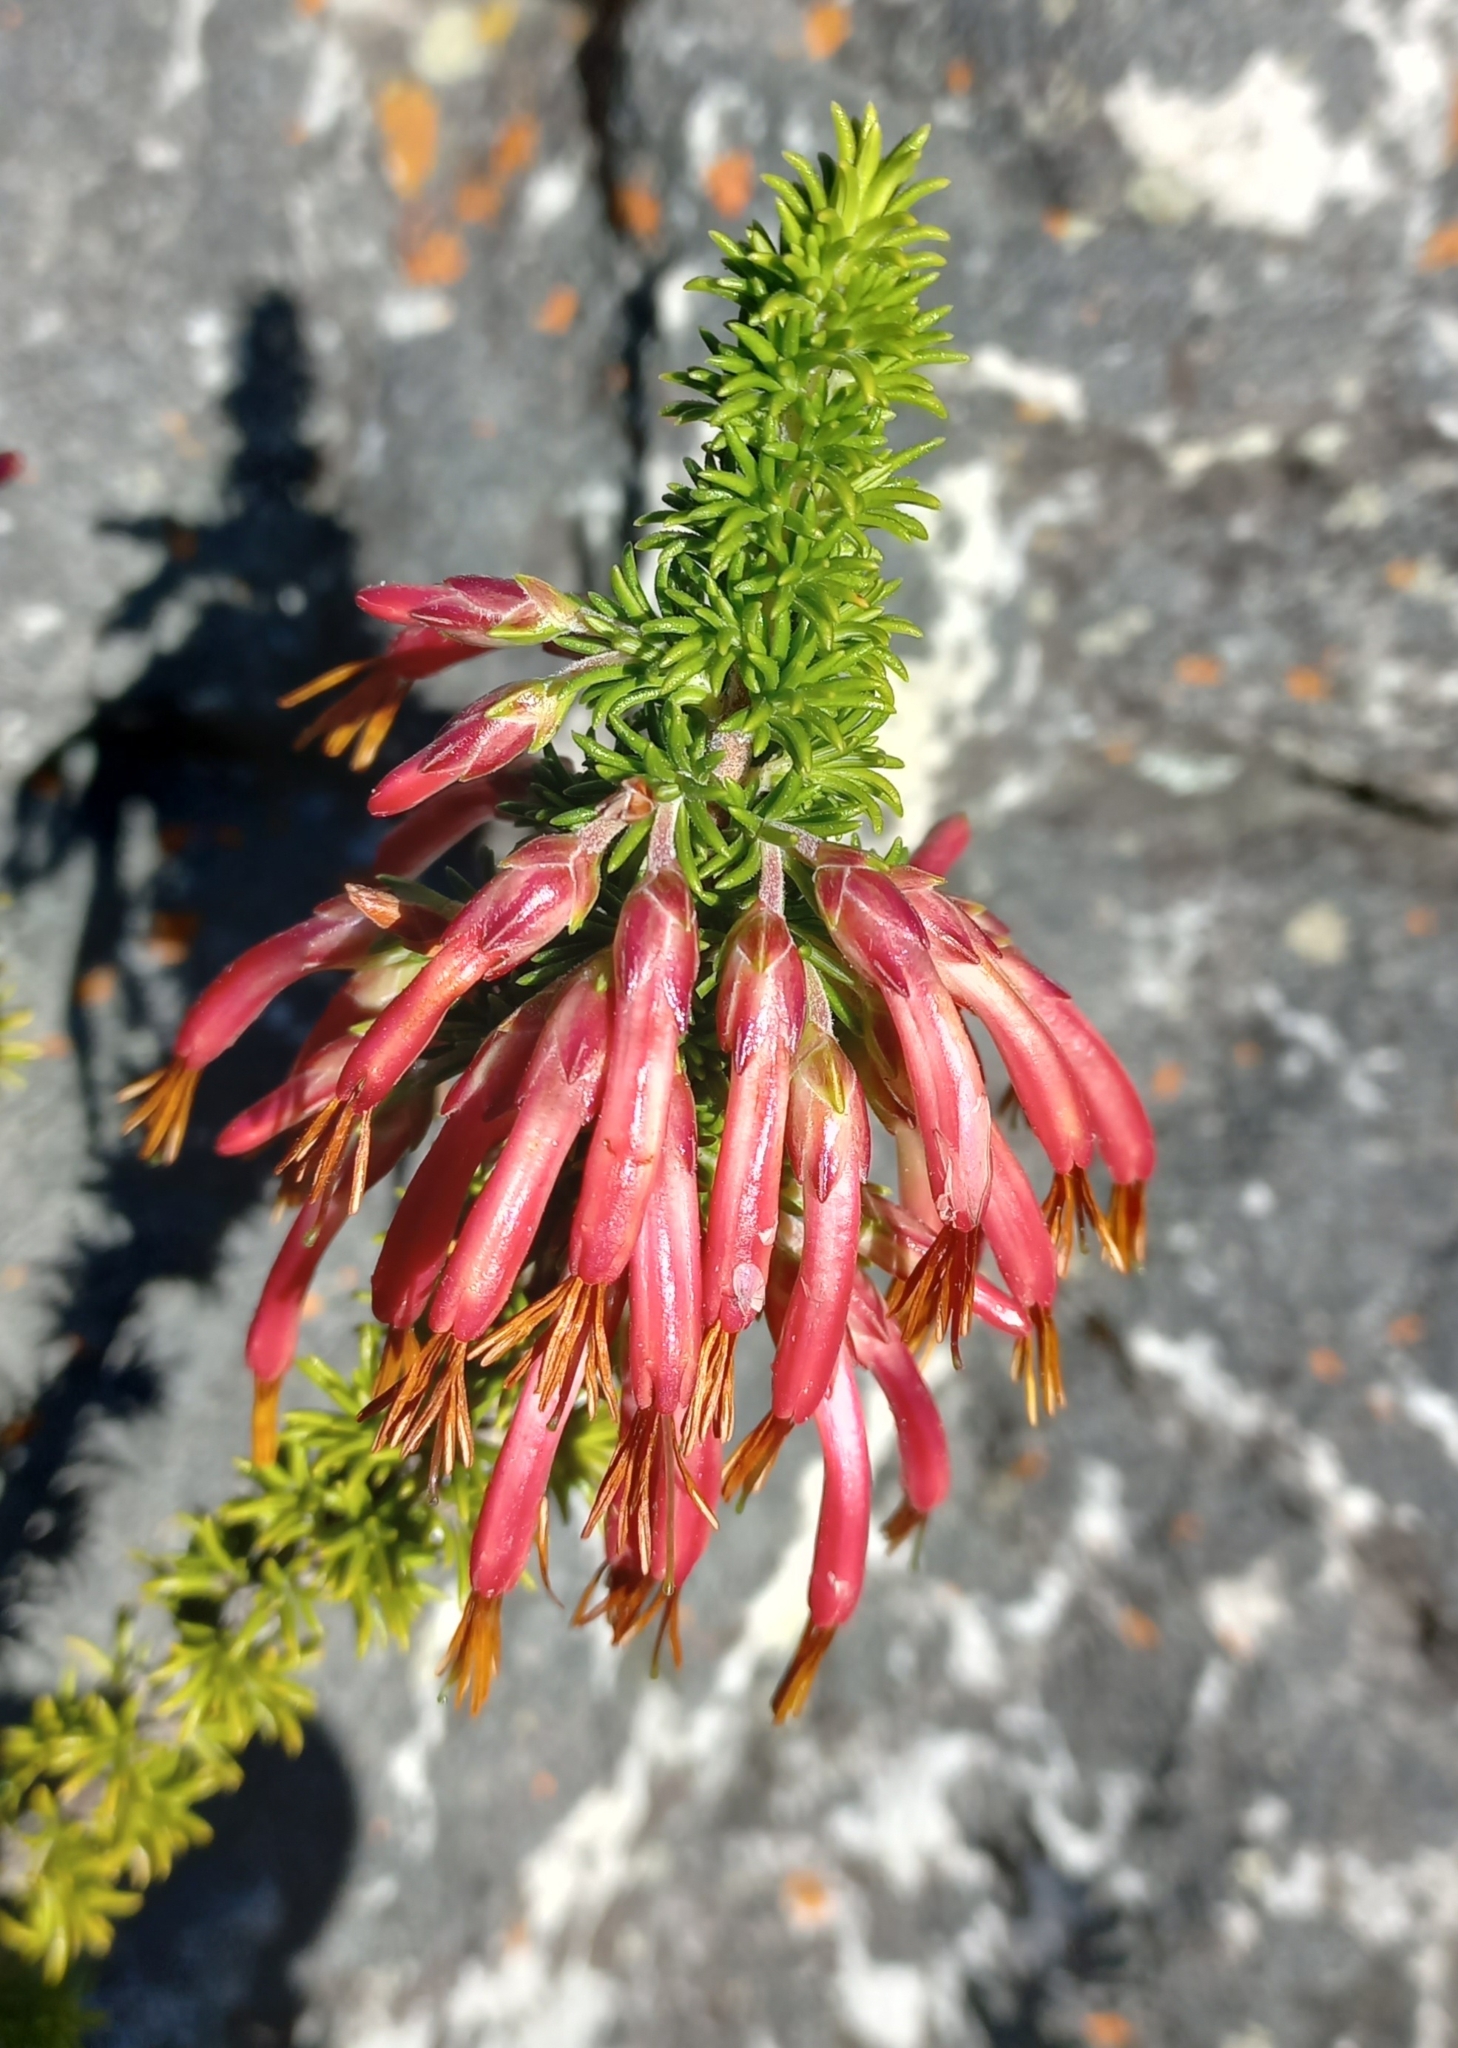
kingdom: Plantae
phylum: Tracheophyta
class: Magnoliopsida
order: Ericales
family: Ericaceae
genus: Erica
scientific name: Erica coccinea
